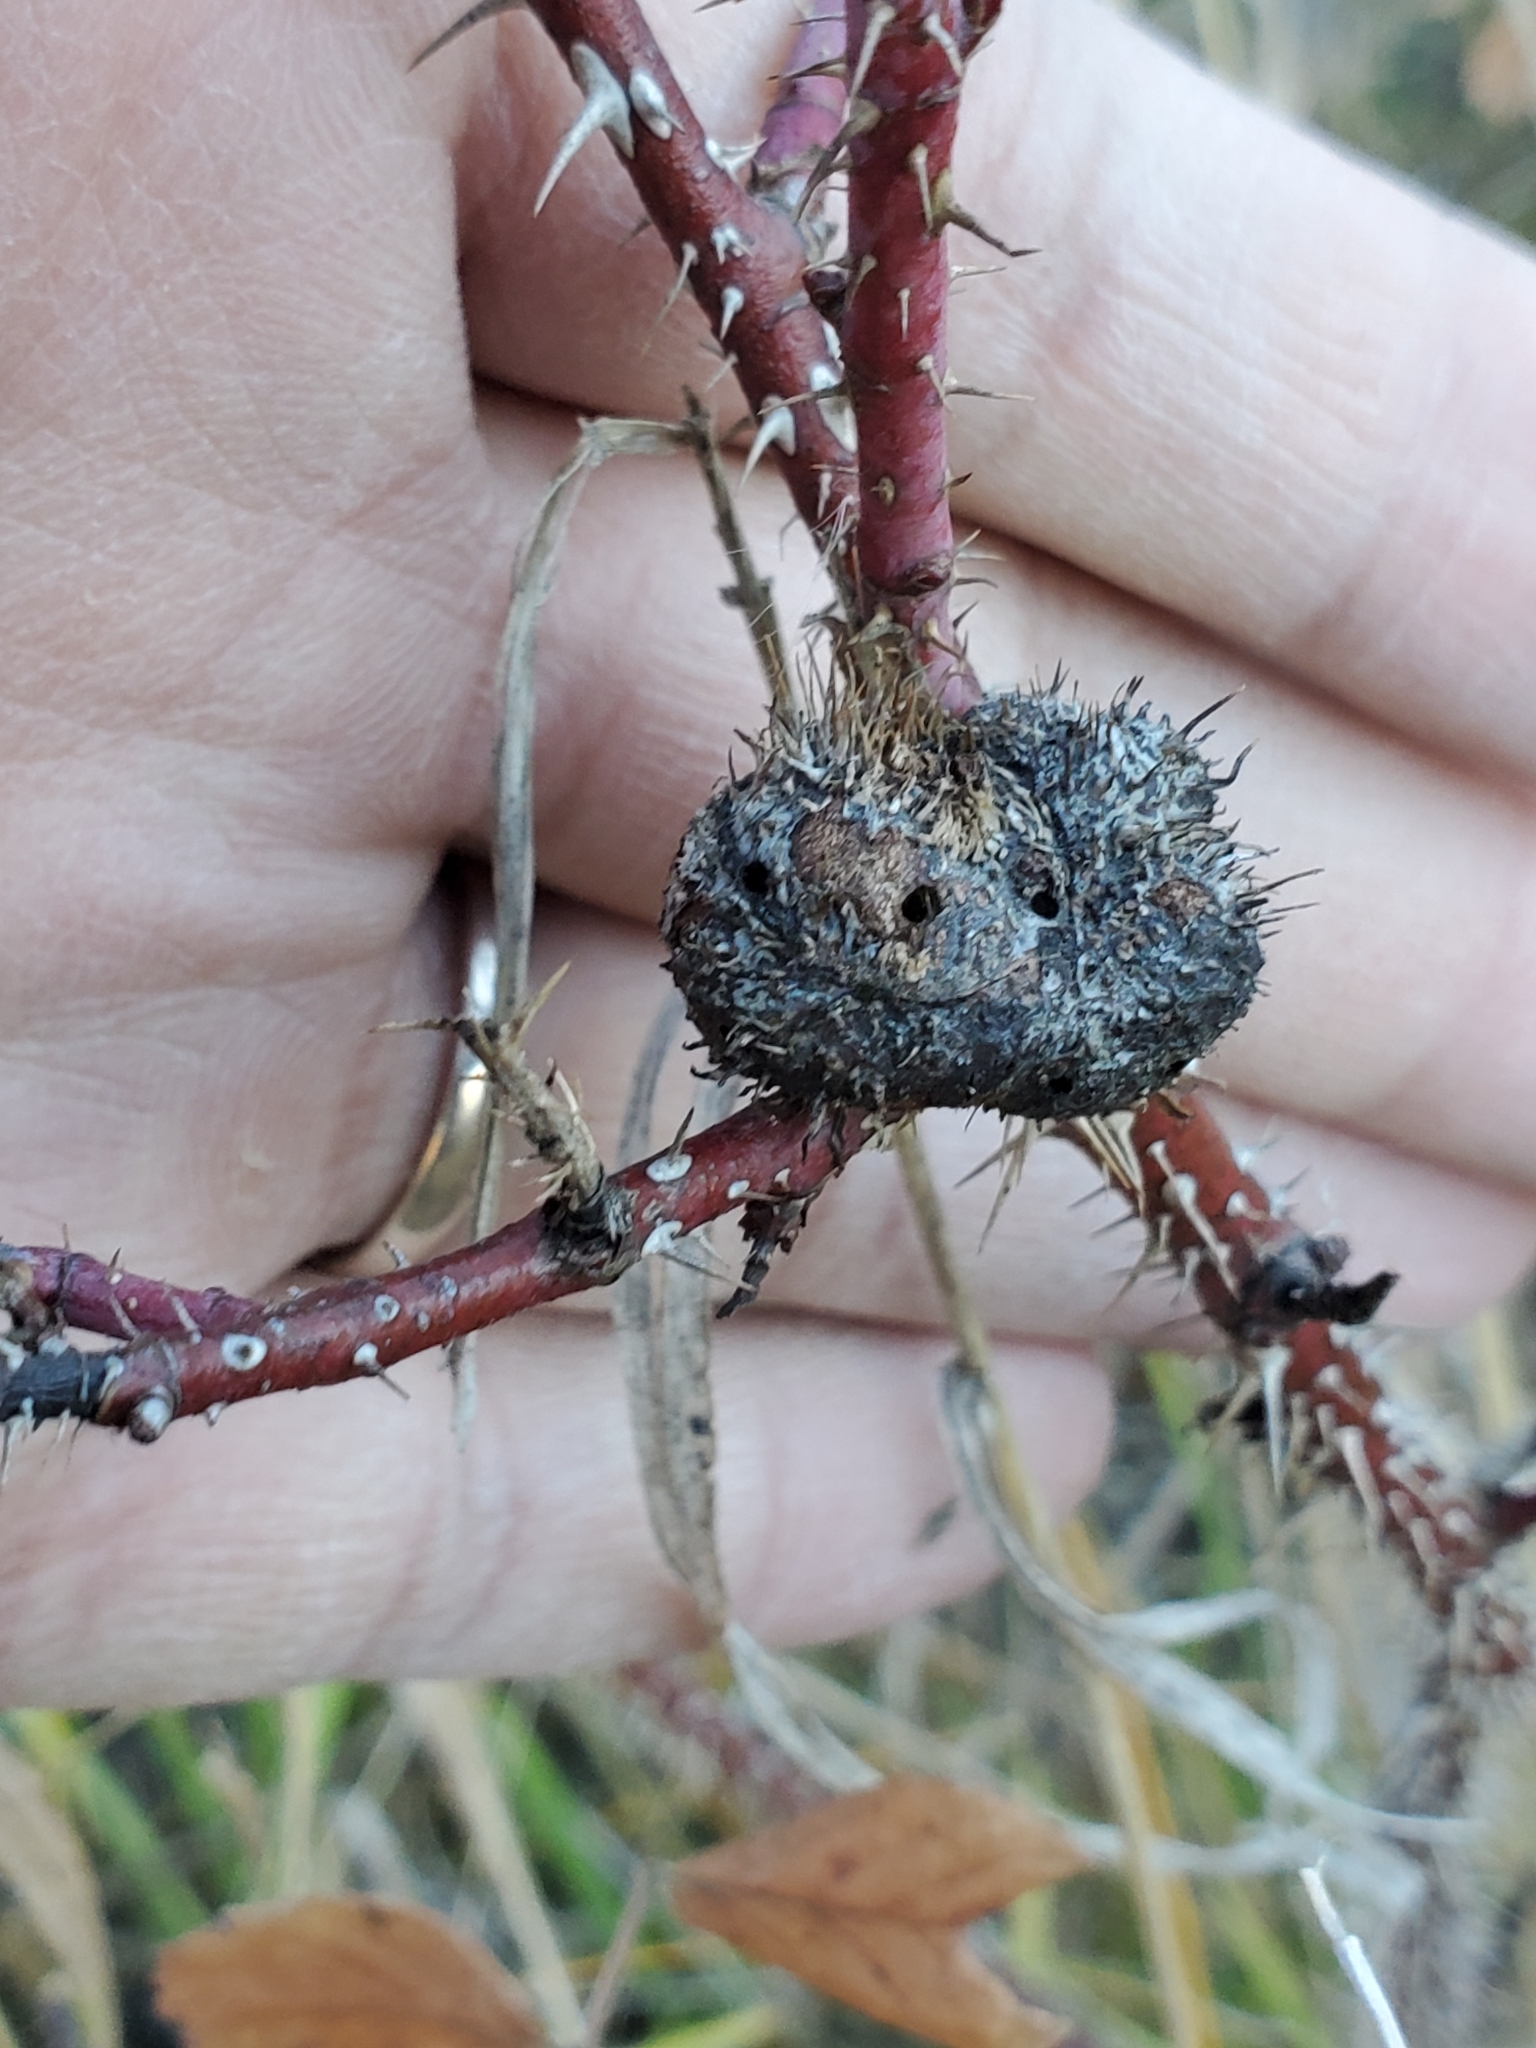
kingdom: Animalia
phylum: Arthropoda
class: Insecta
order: Hymenoptera
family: Cynipidae
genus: Diplolepis
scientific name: Diplolepis spinosa
